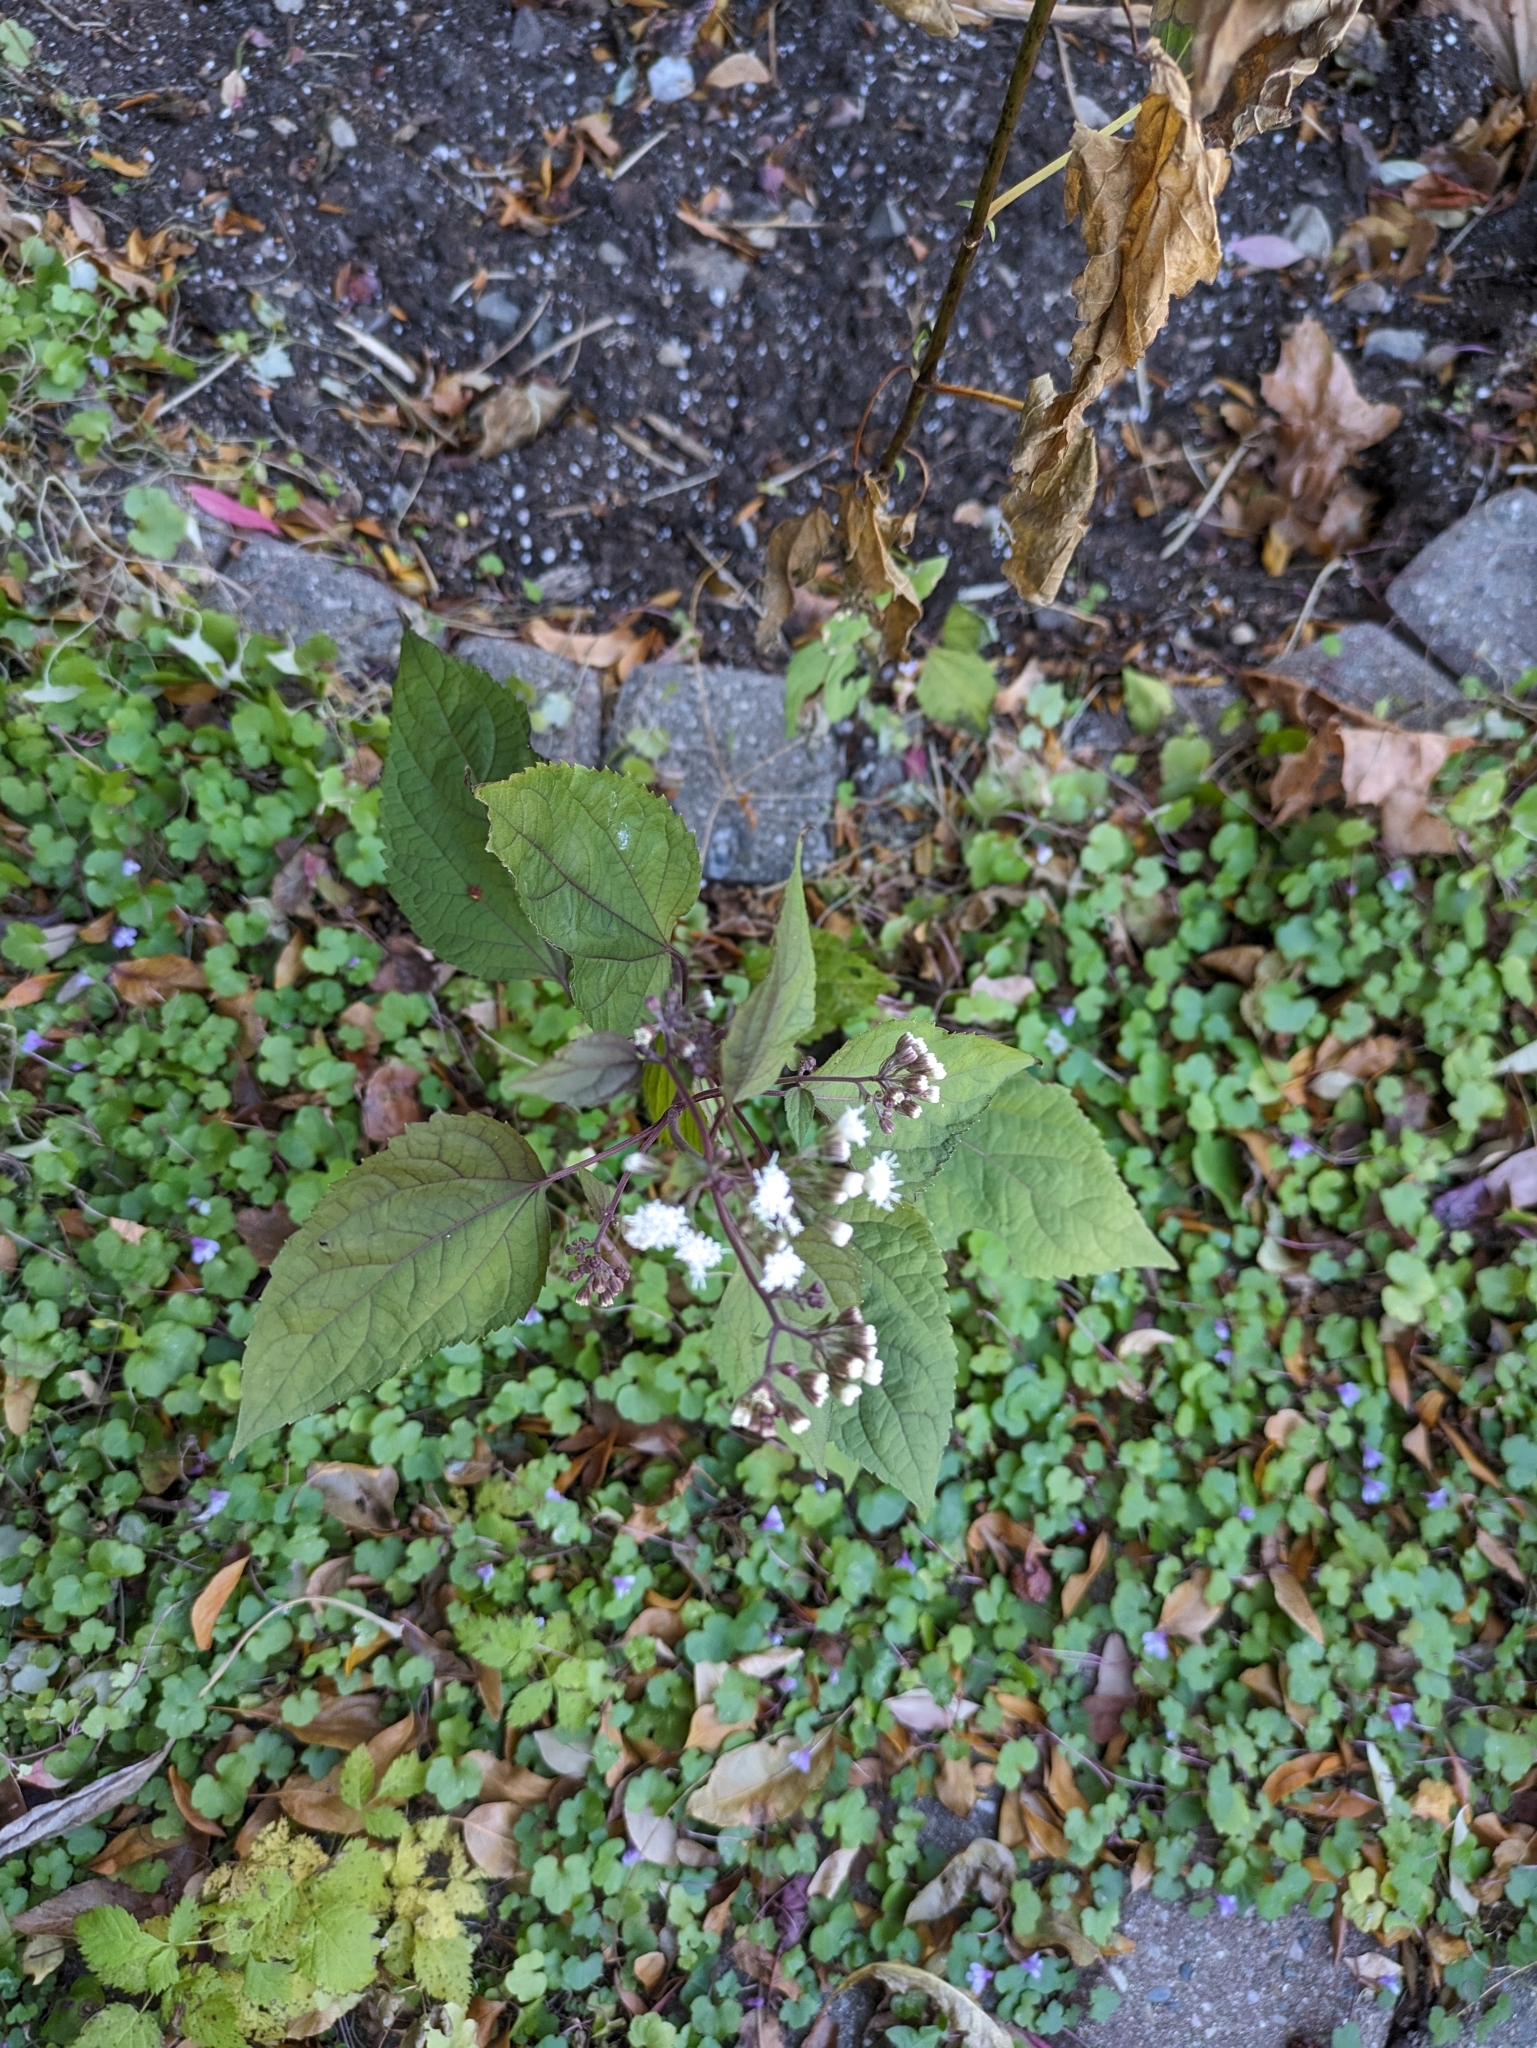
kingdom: Plantae
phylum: Tracheophyta
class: Magnoliopsida
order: Asterales
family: Asteraceae
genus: Ageratina
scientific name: Ageratina altissima
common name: White snakeroot
